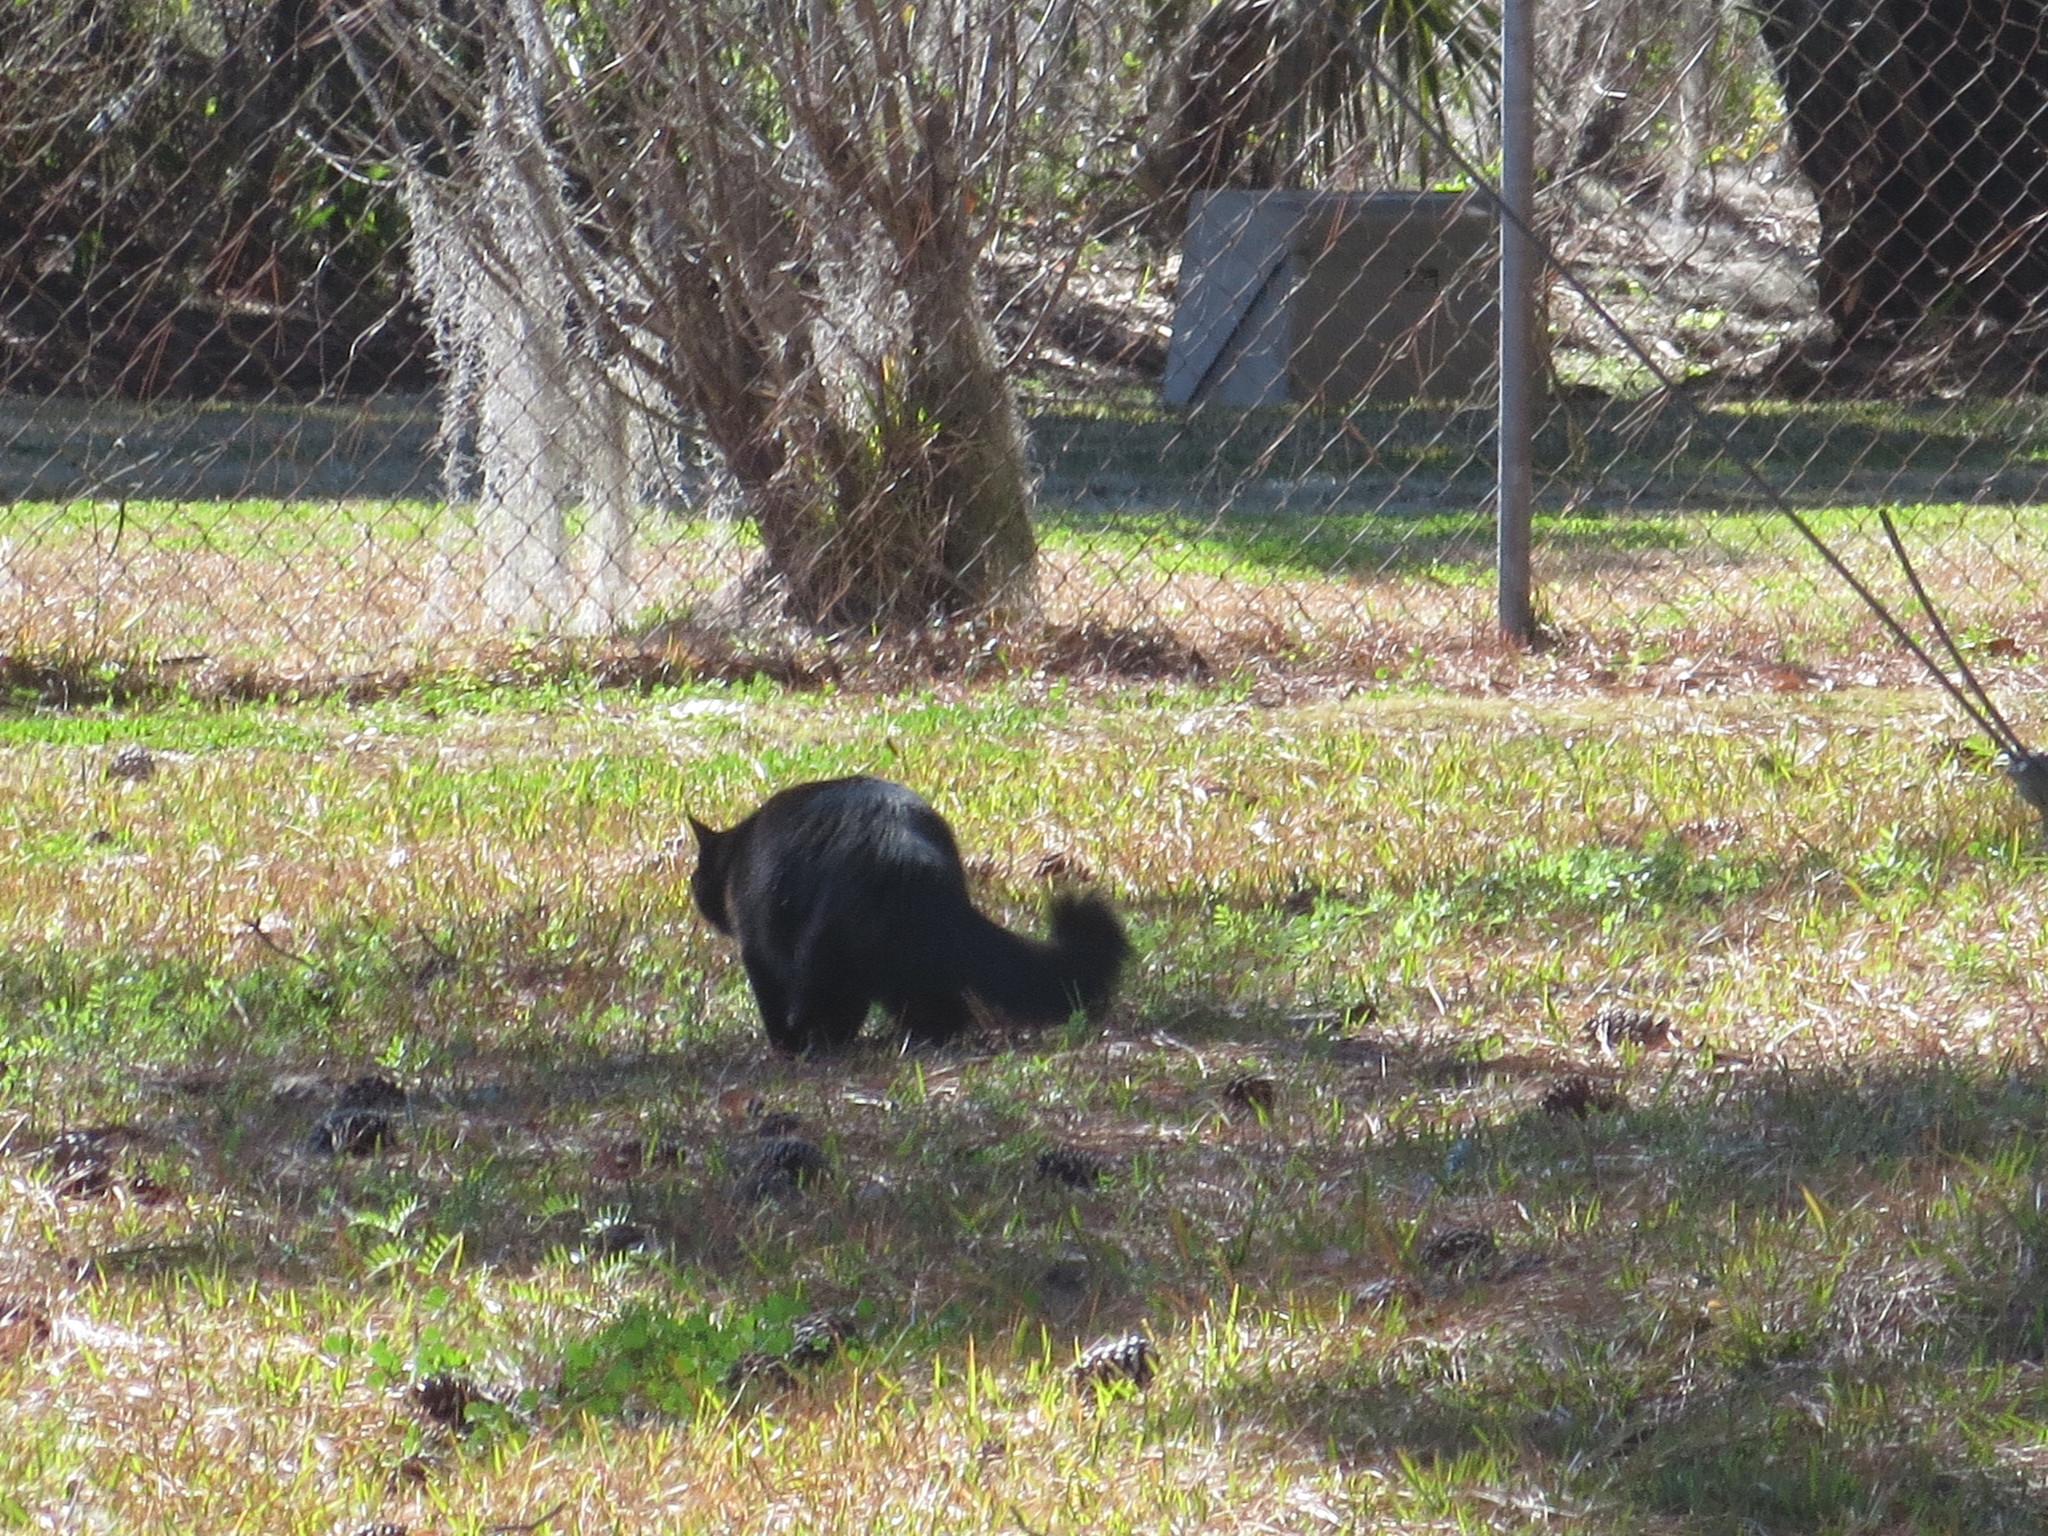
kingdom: Animalia
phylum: Chordata
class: Mammalia
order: Carnivora
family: Felidae
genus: Felis
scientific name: Felis catus
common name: Domestic cat
